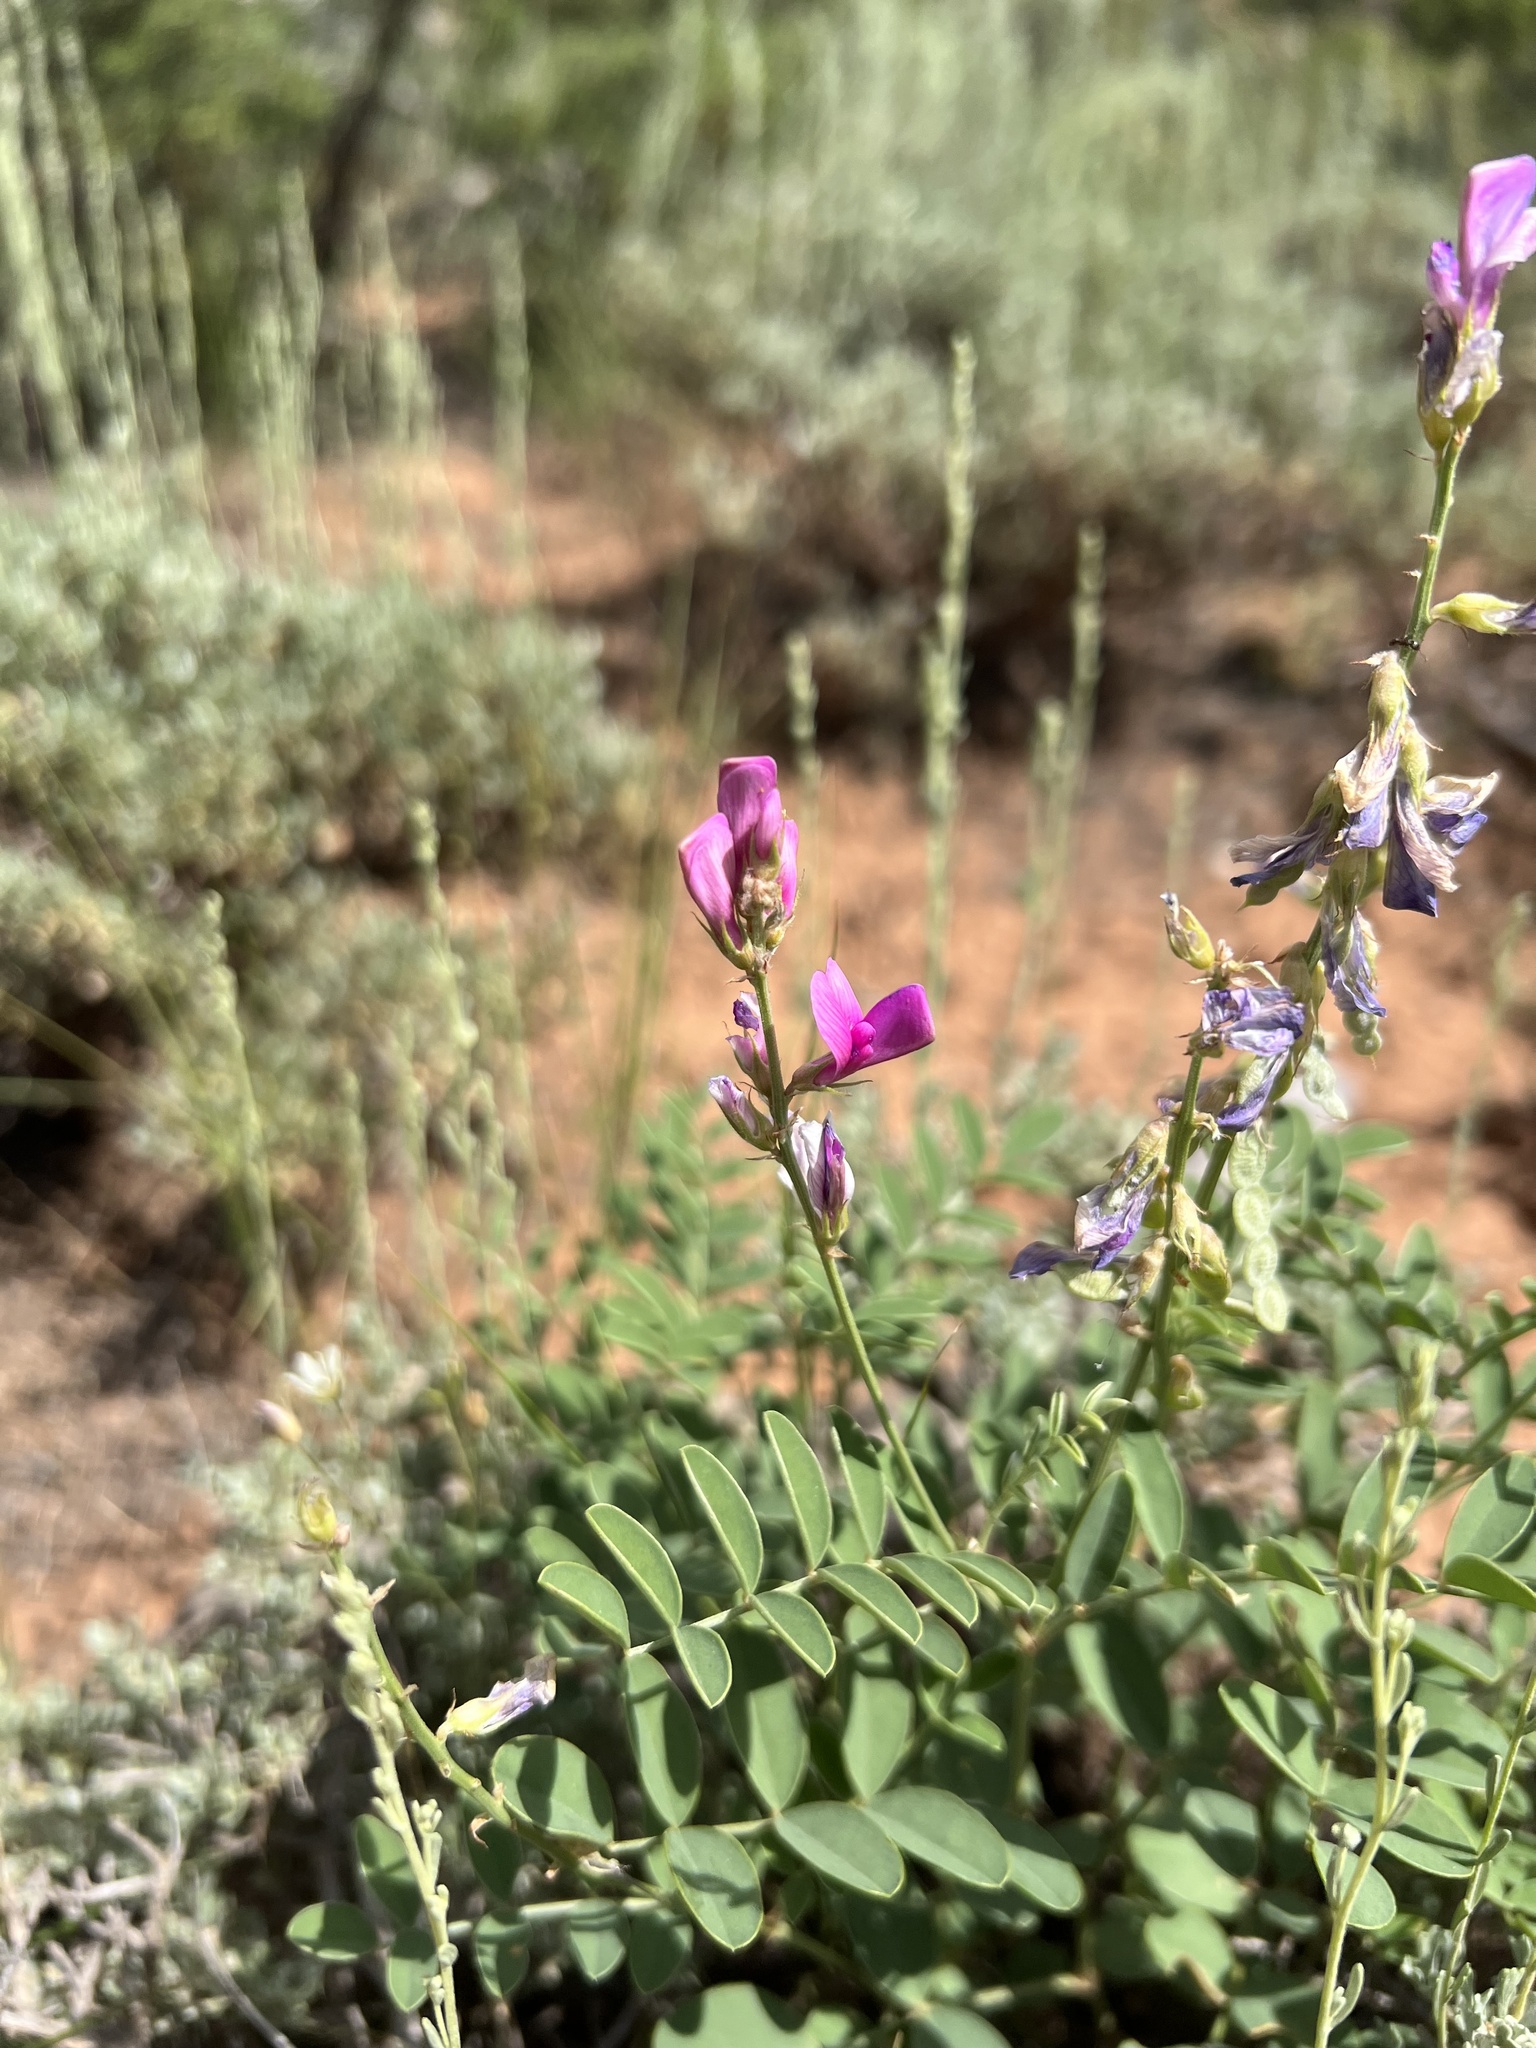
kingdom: Plantae
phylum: Tracheophyta
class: Magnoliopsida
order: Fabales
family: Fabaceae
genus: Hedysarum
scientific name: Hedysarum boreale
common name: Northern sweet-vetch
